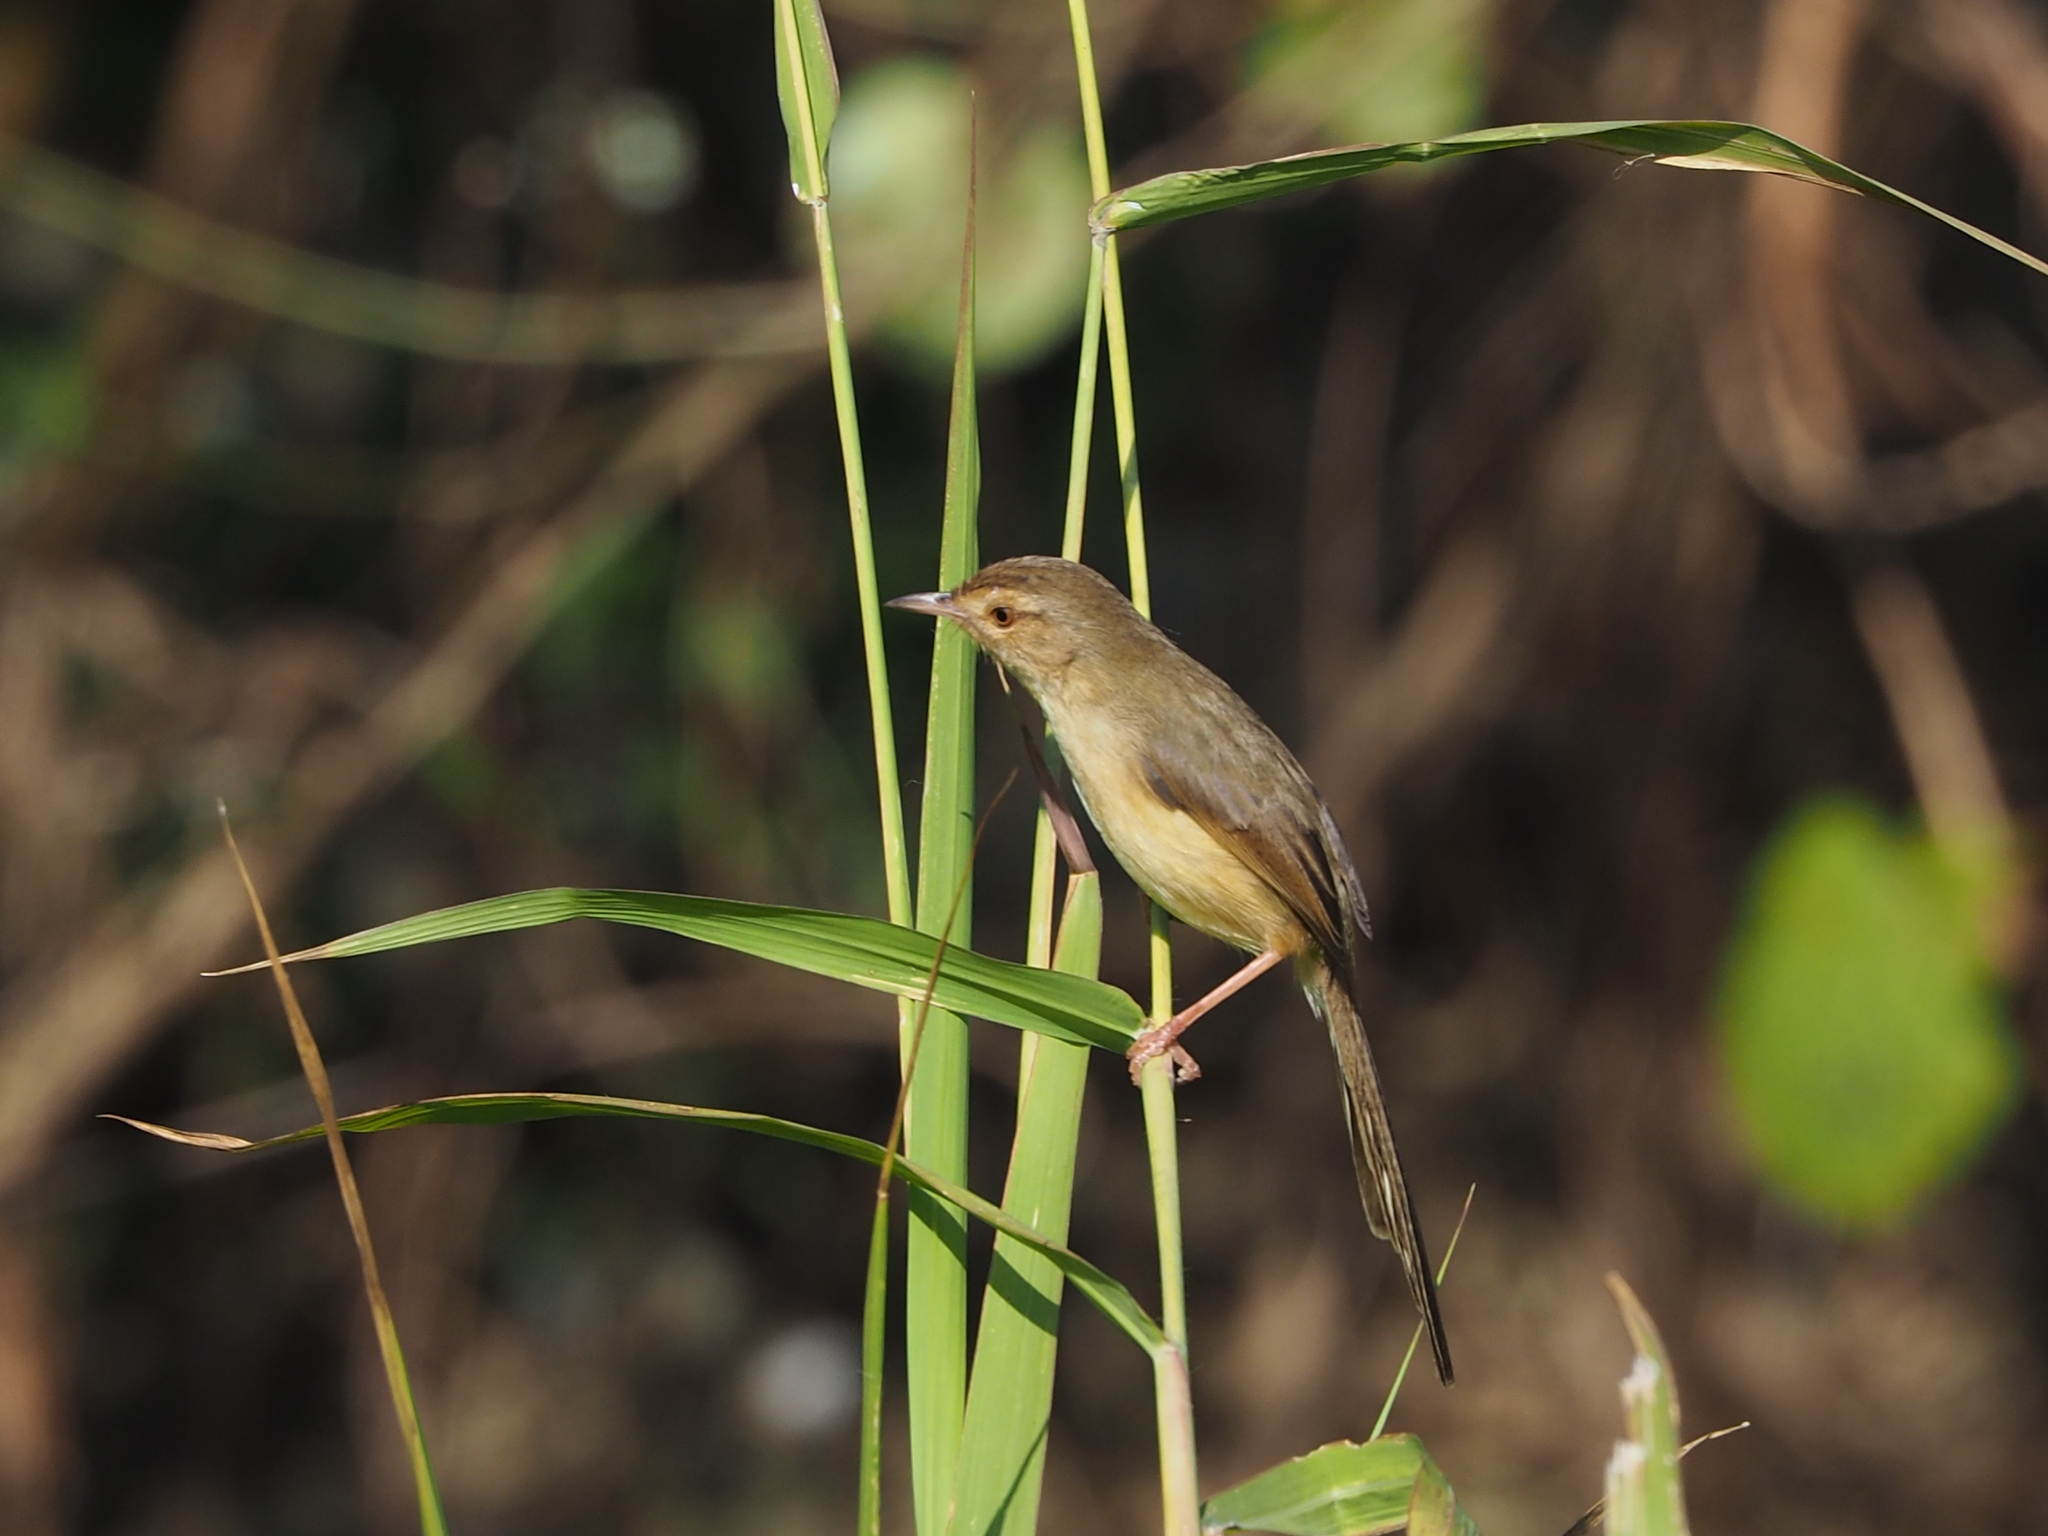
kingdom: Animalia
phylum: Chordata
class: Aves
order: Passeriformes
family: Cisticolidae
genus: Prinia
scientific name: Prinia inornata
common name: Plain prinia
